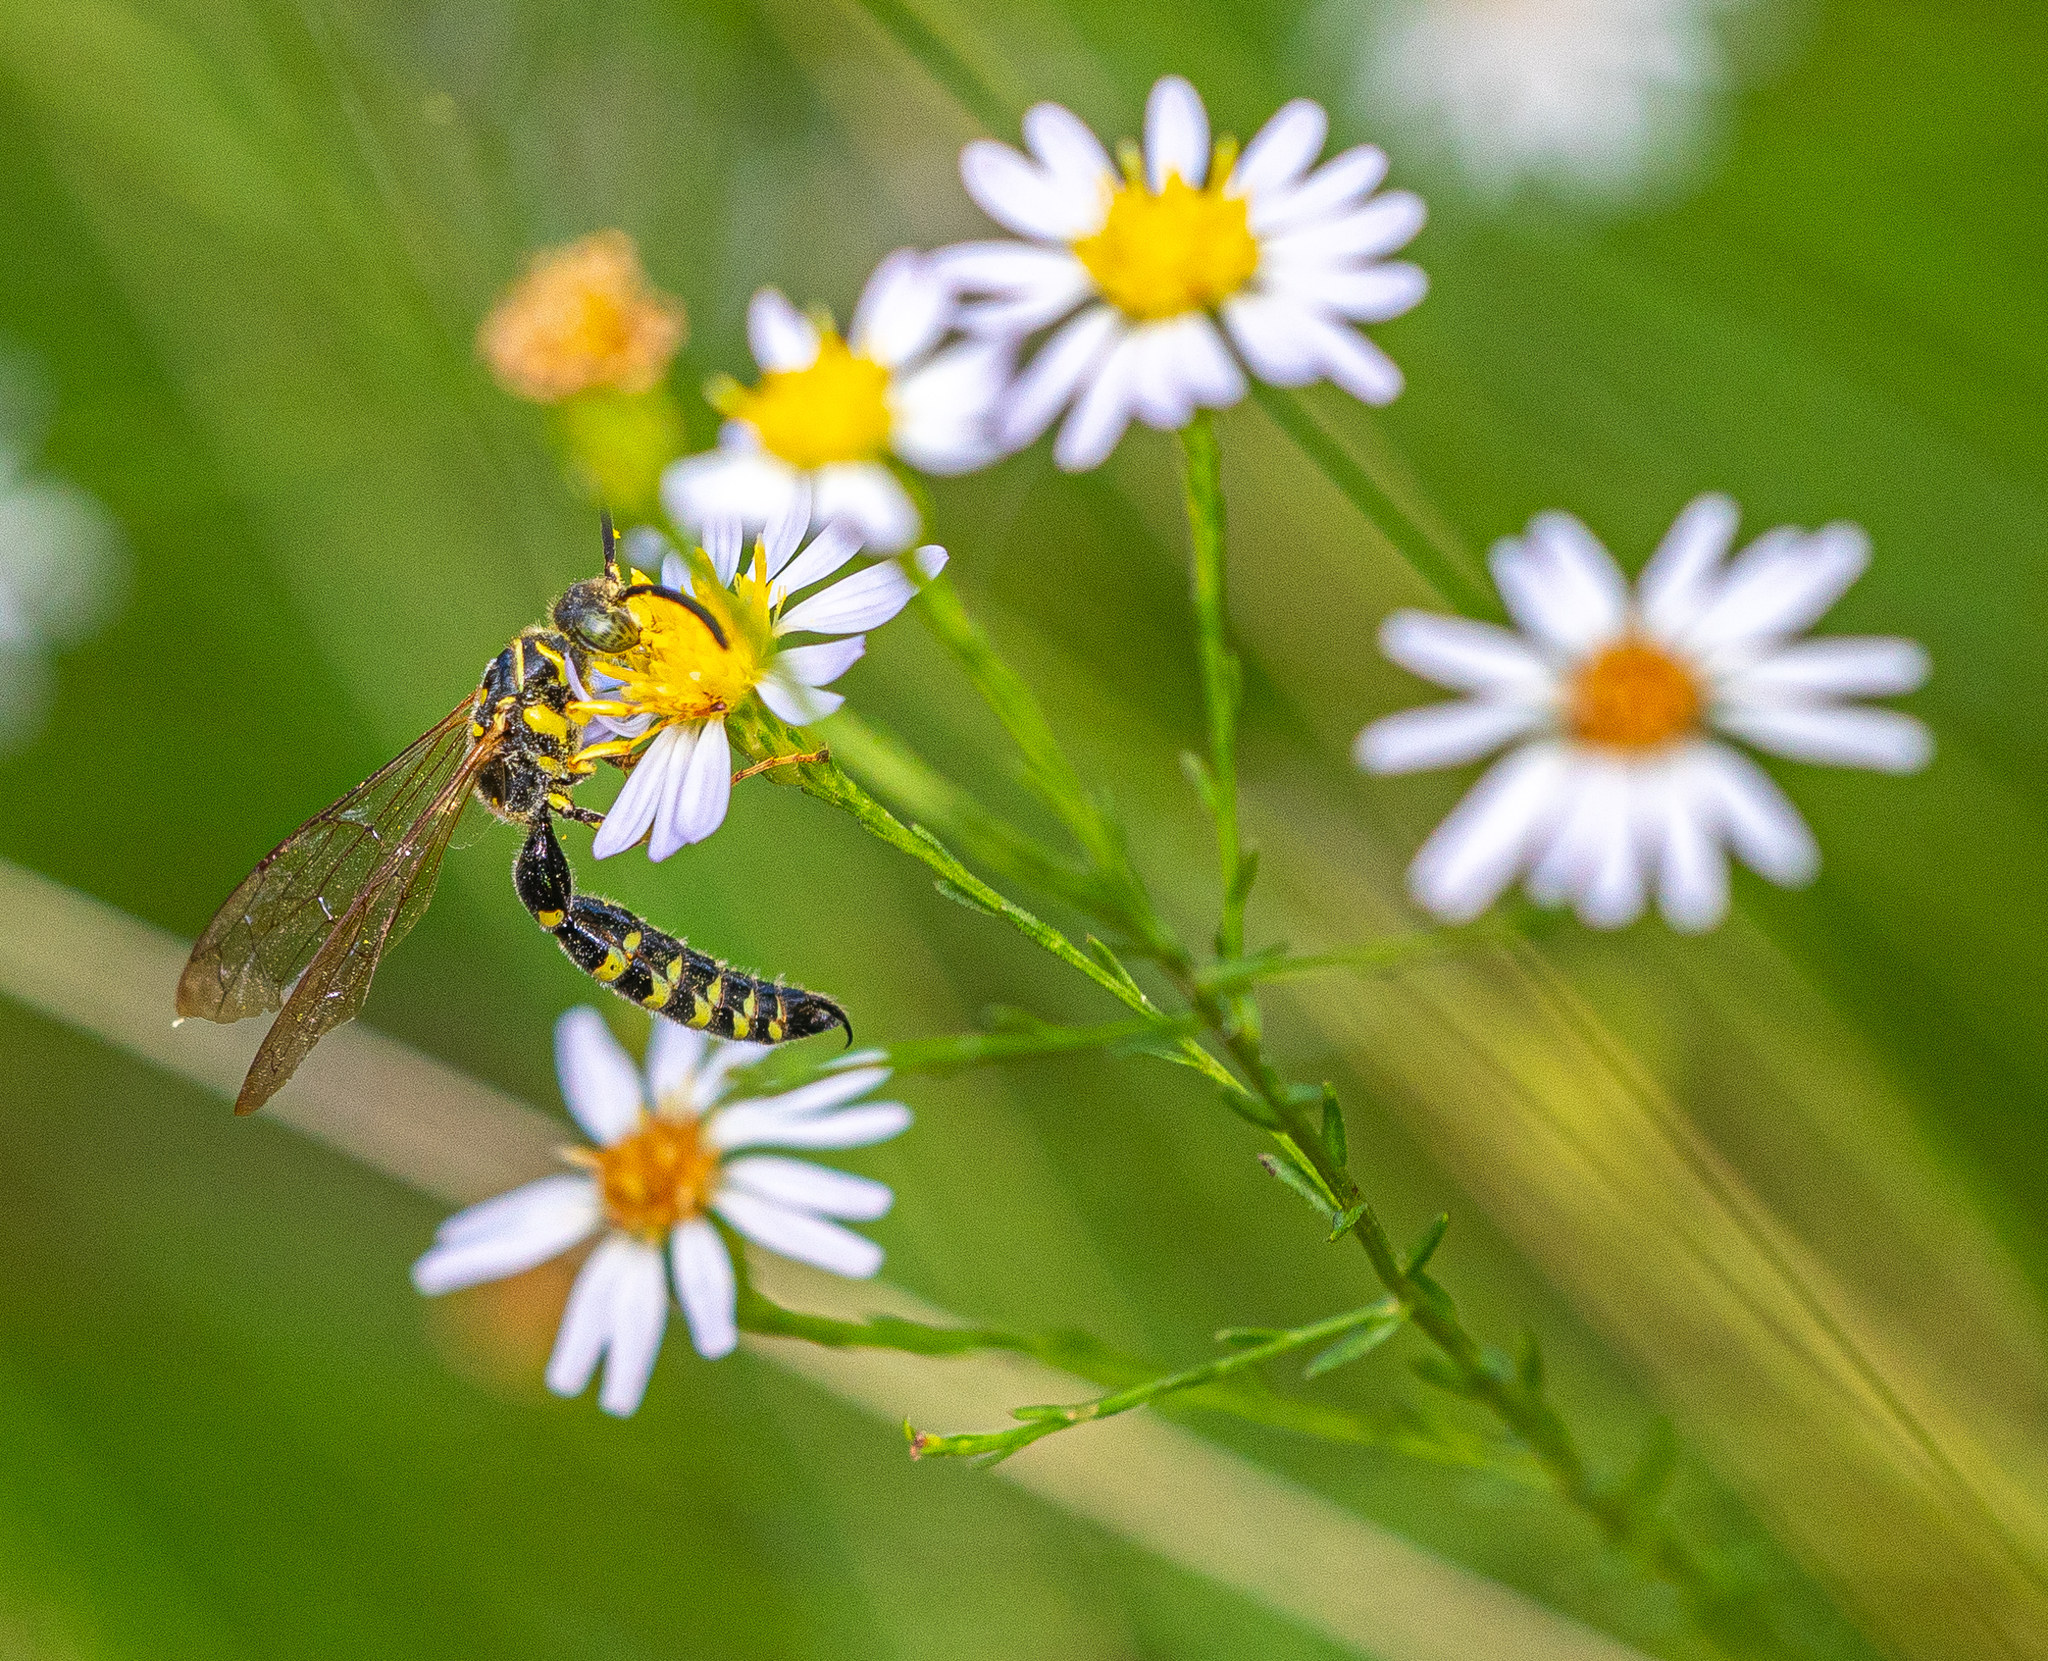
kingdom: Animalia
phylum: Arthropoda
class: Insecta
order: Hymenoptera
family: Tiphiidae
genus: Myzinum
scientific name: Myzinum
